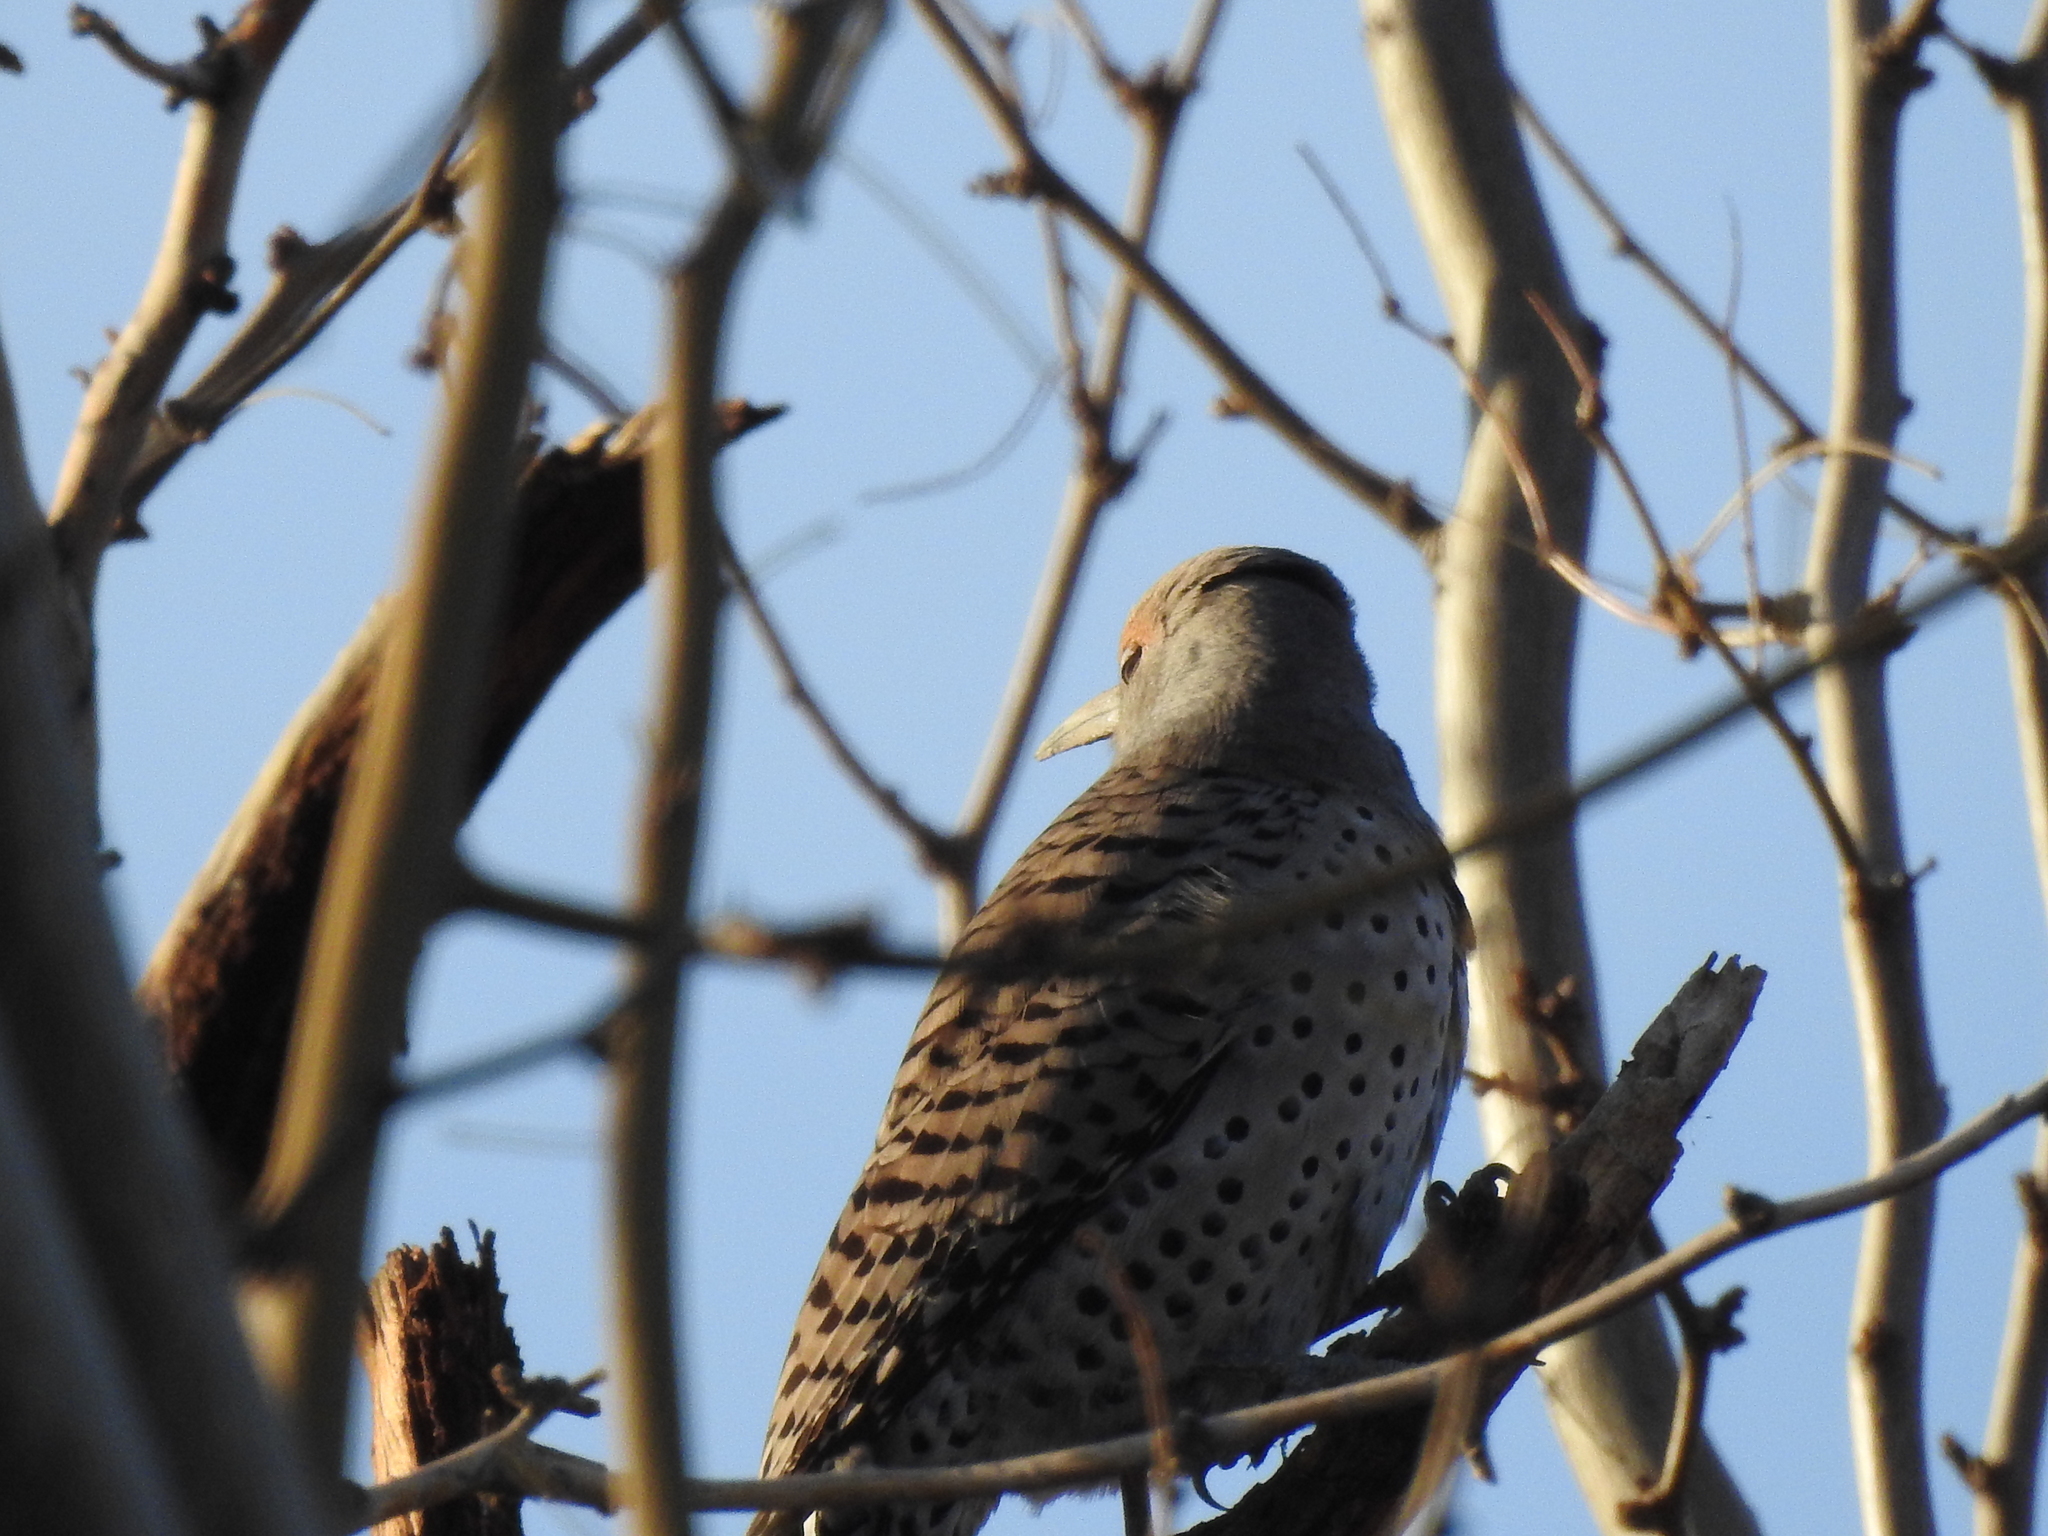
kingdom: Animalia
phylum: Chordata
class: Aves
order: Piciformes
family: Picidae
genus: Colaptes
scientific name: Colaptes auratus
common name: Northern flicker
